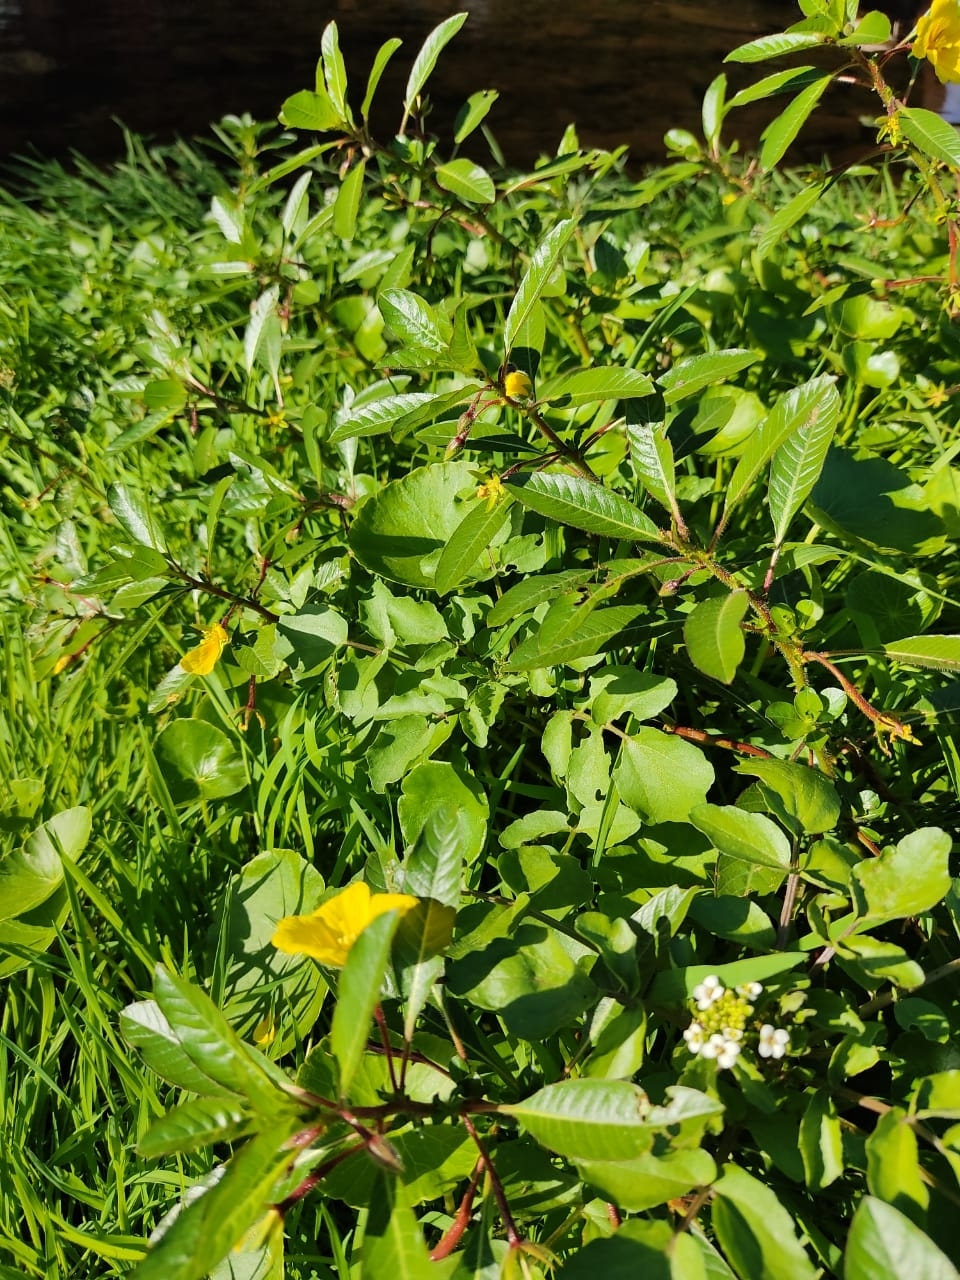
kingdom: Plantae
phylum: Tracheophyta
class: Magnoliopsida
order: Myrtales
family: Onagraceae
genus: Ludwigia
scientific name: Ludwigia peploides
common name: Floating primrose-willow
